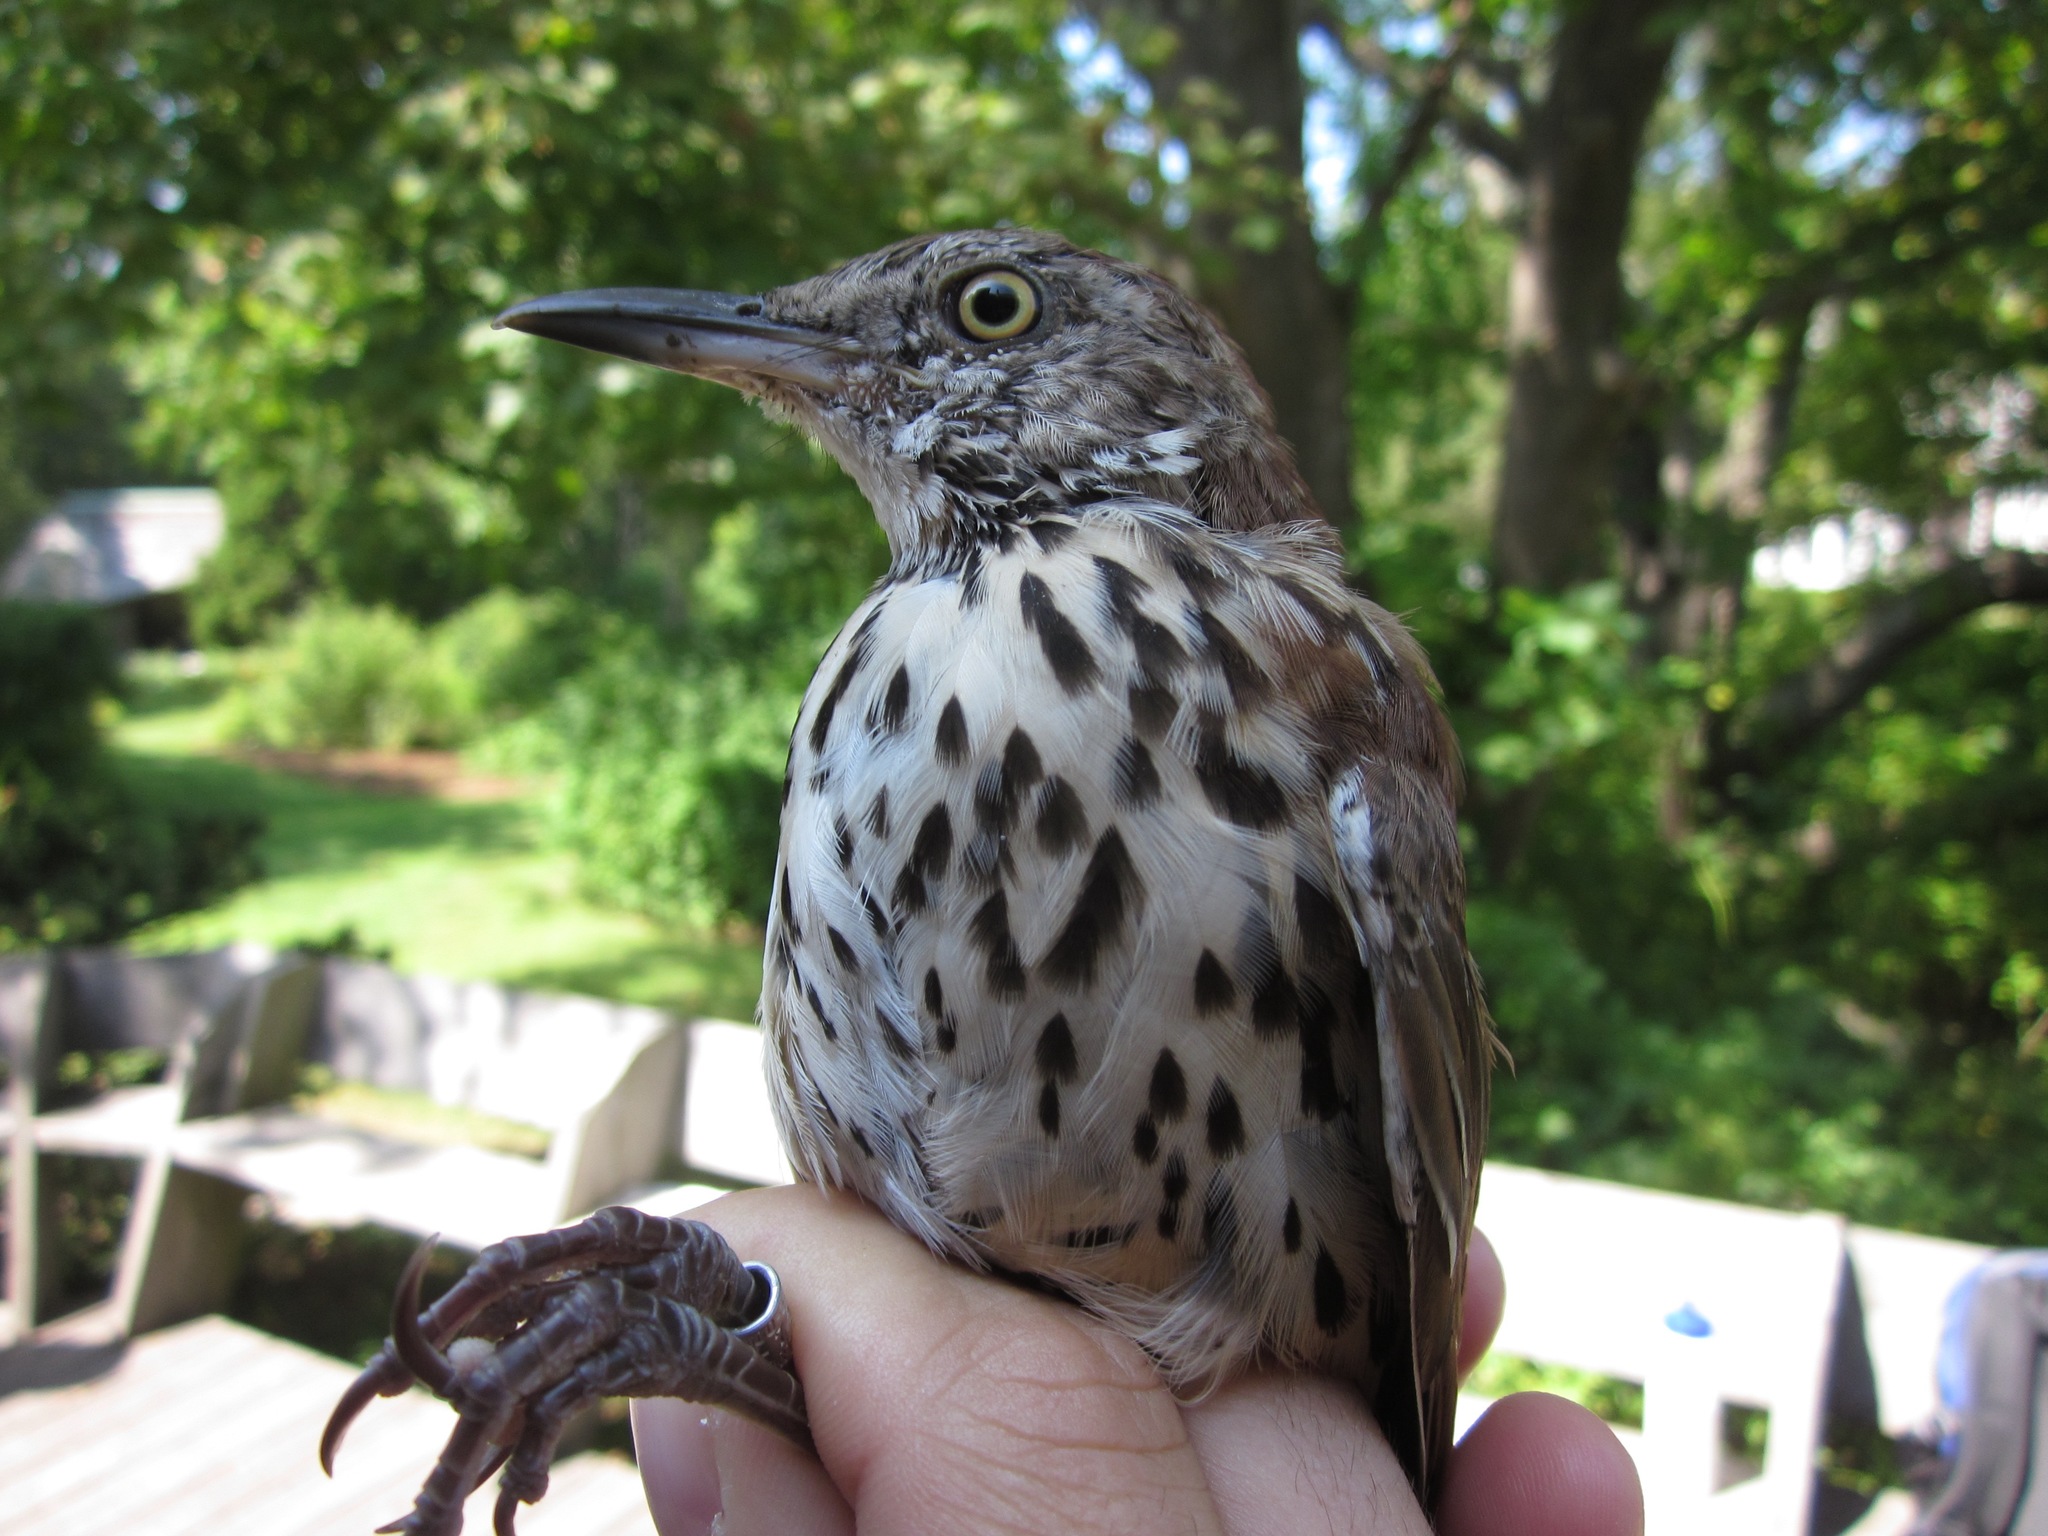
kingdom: Animalia
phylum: Chordata
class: Aves
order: Passeriformes
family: Mimidae
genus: Toxostoma
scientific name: Toxostoma rufum
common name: Brown thrasher
